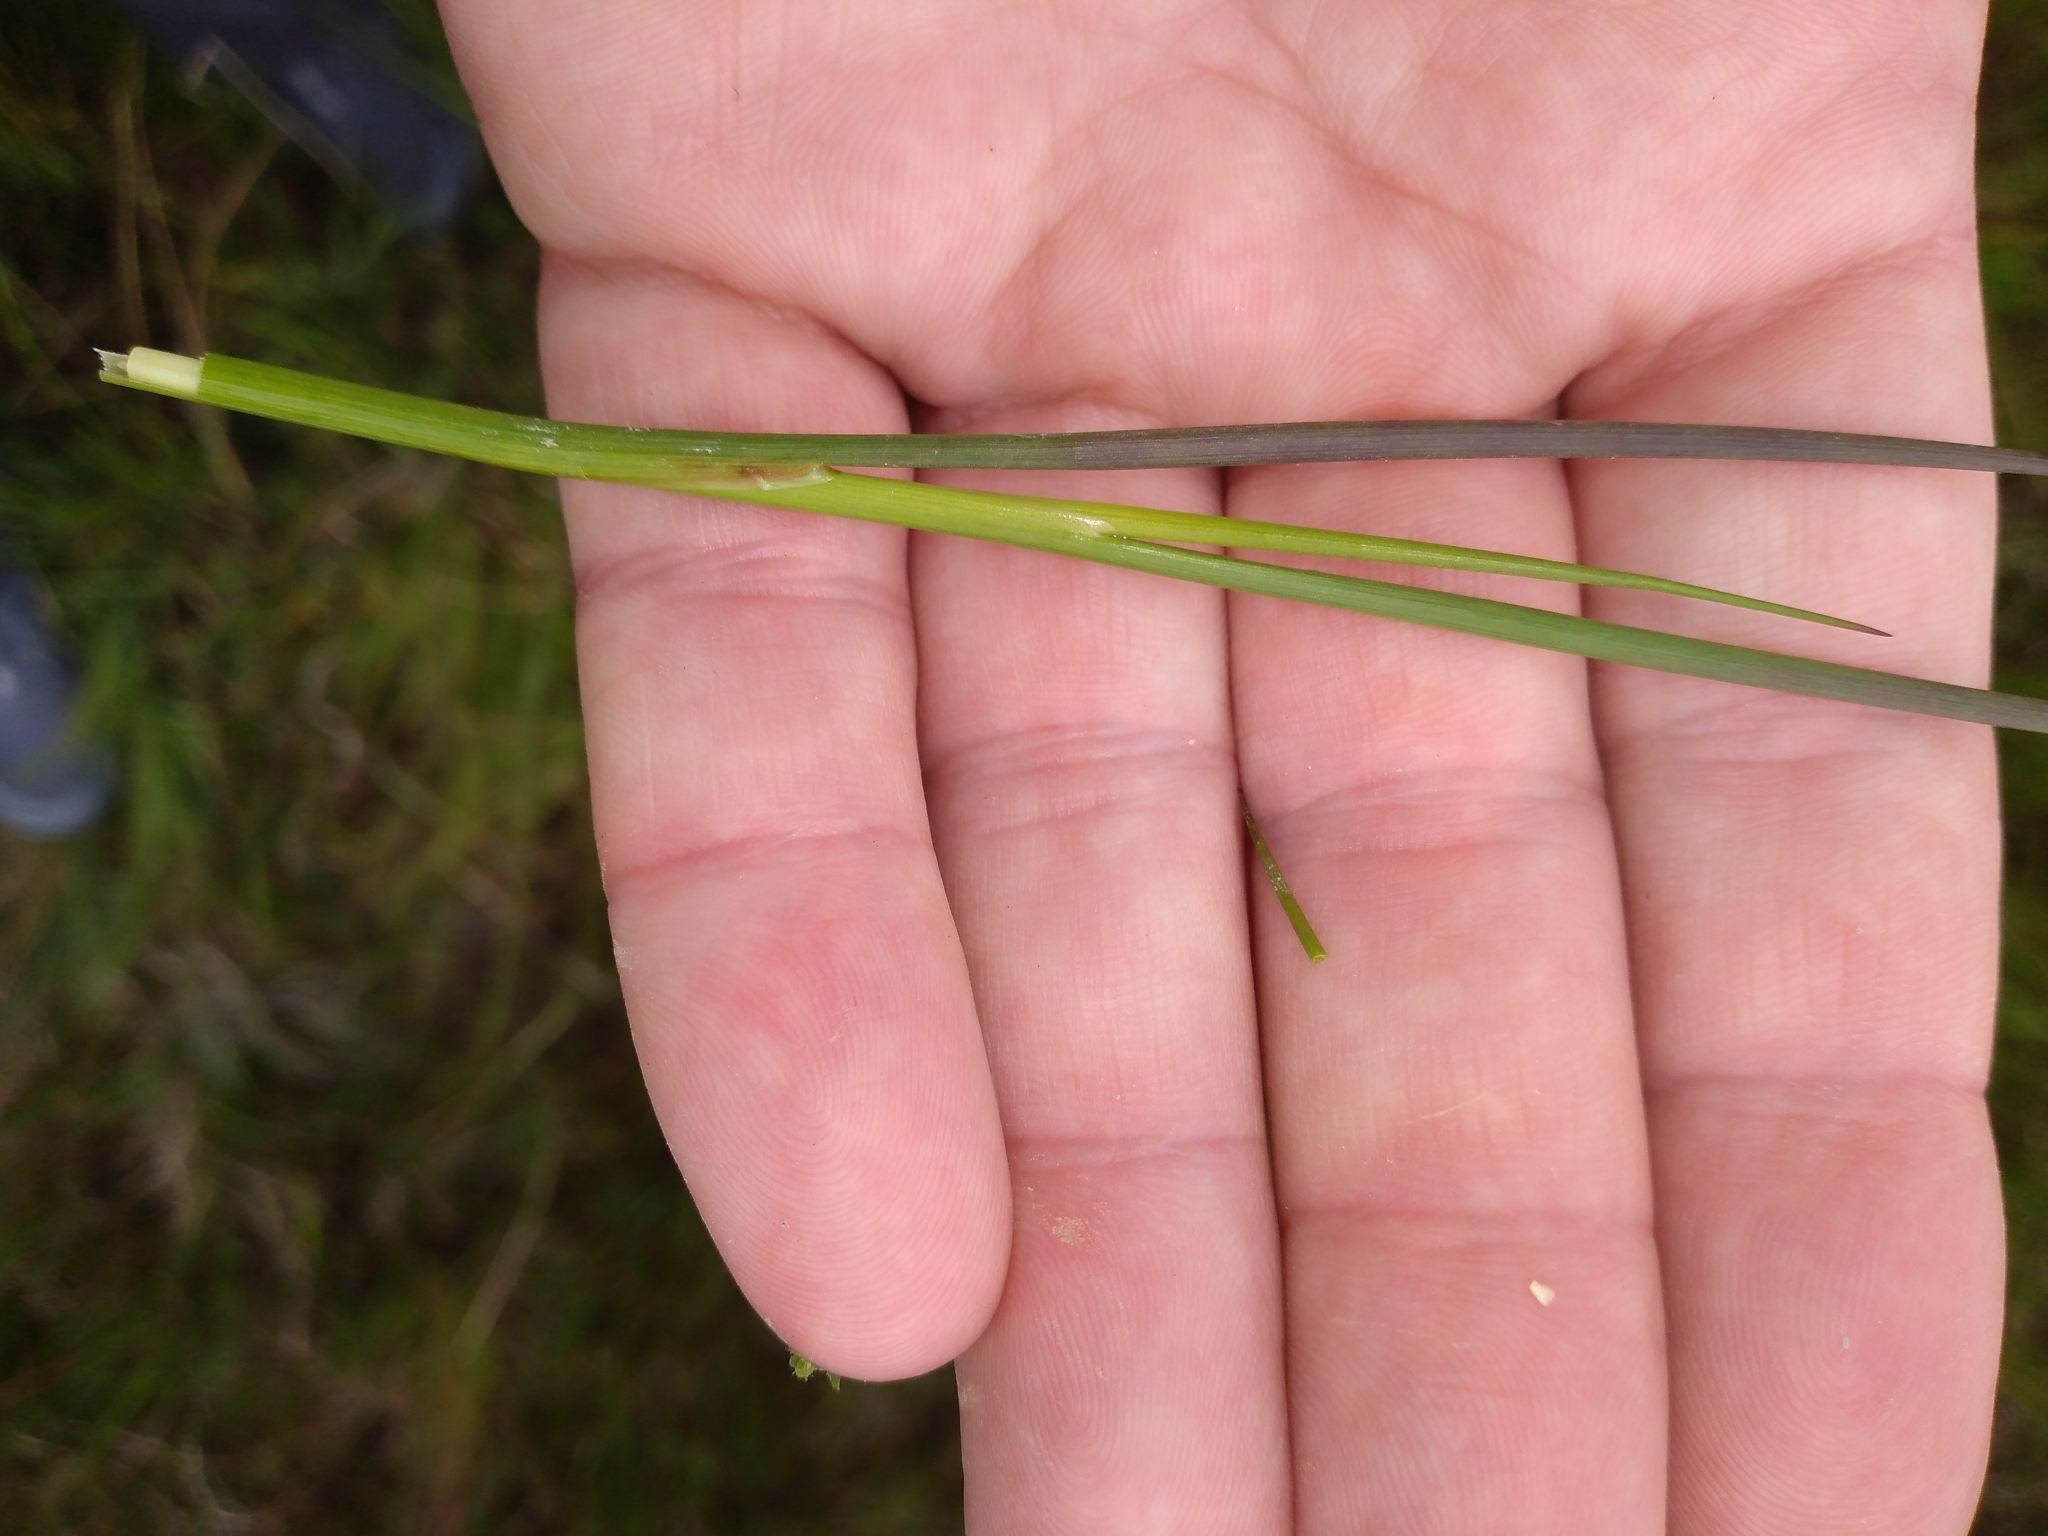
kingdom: Plantae
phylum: Tracheophyta
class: Liliopsida
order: Poales
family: Juncaceae
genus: Juncus
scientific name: Juncus articulatus
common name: Jointed rush
